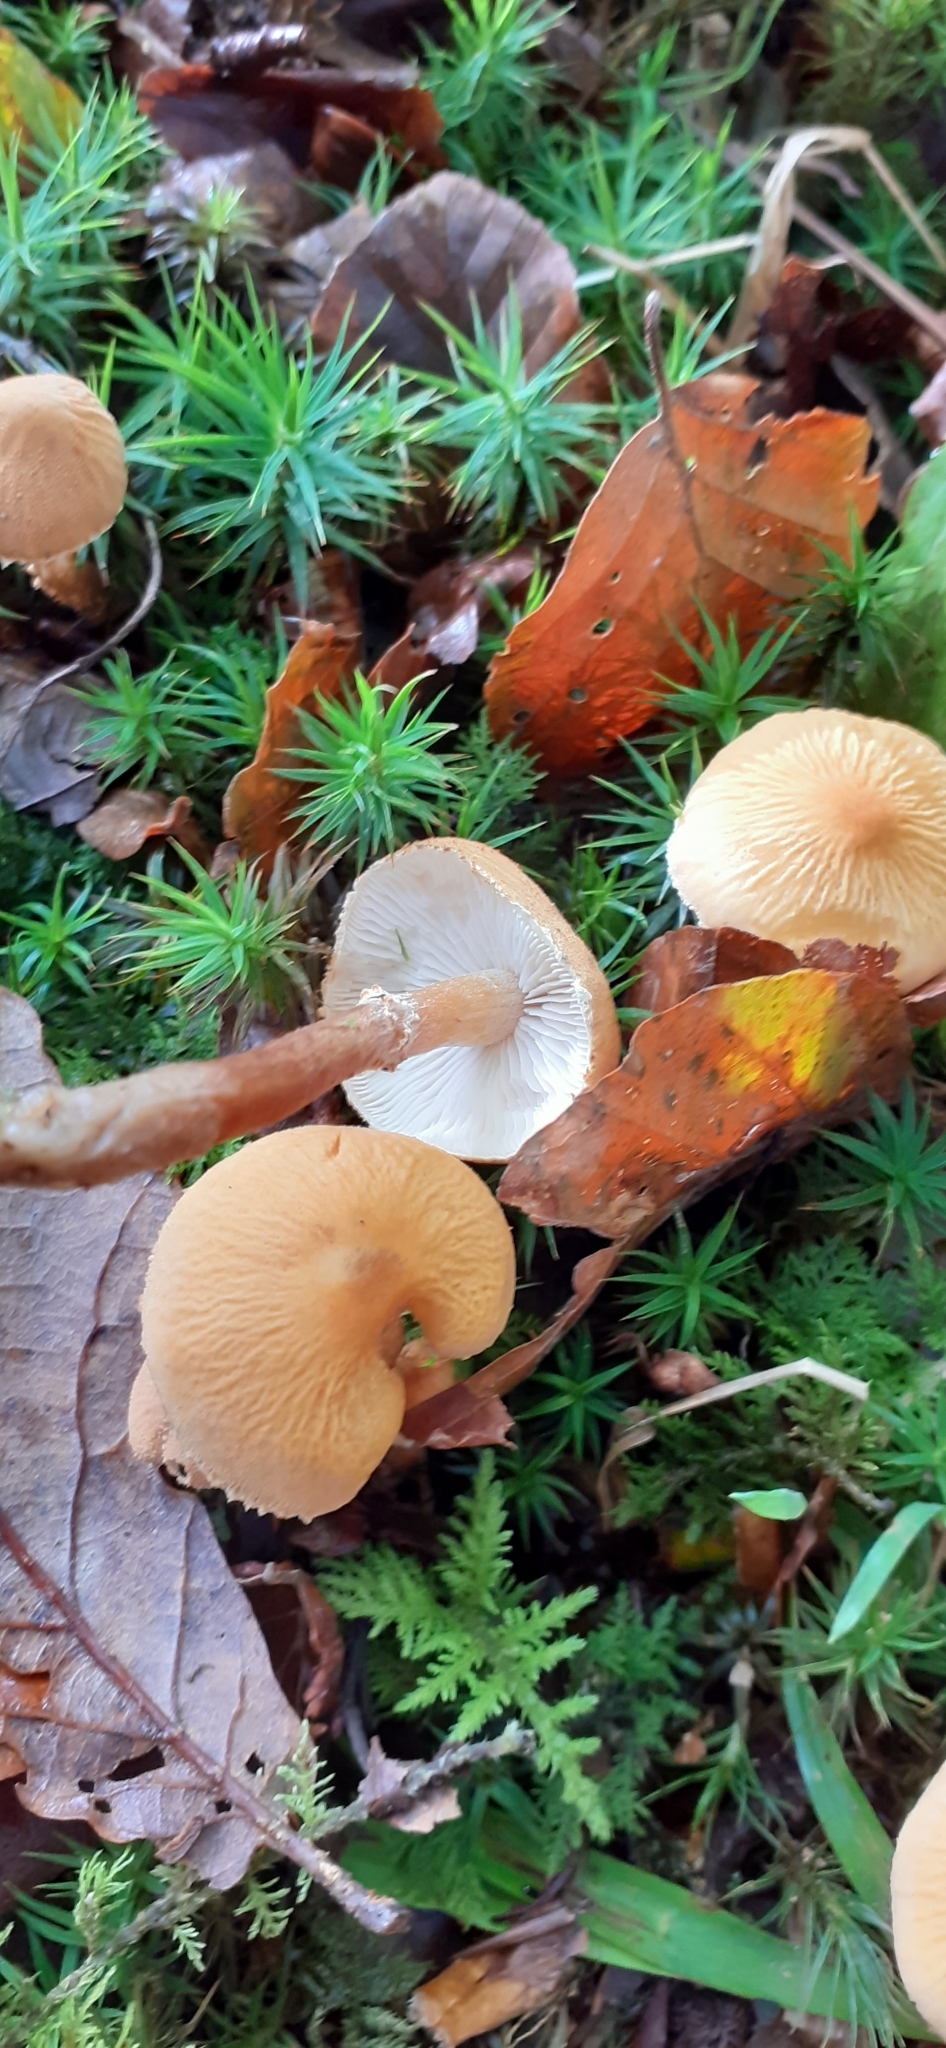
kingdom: Fungi
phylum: Basidiomycota
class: Agaricomycetes
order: Agaricales
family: Tricholomataceae
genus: Cystoderma
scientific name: Cystoderma amianthinum
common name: Earthy powdercap
